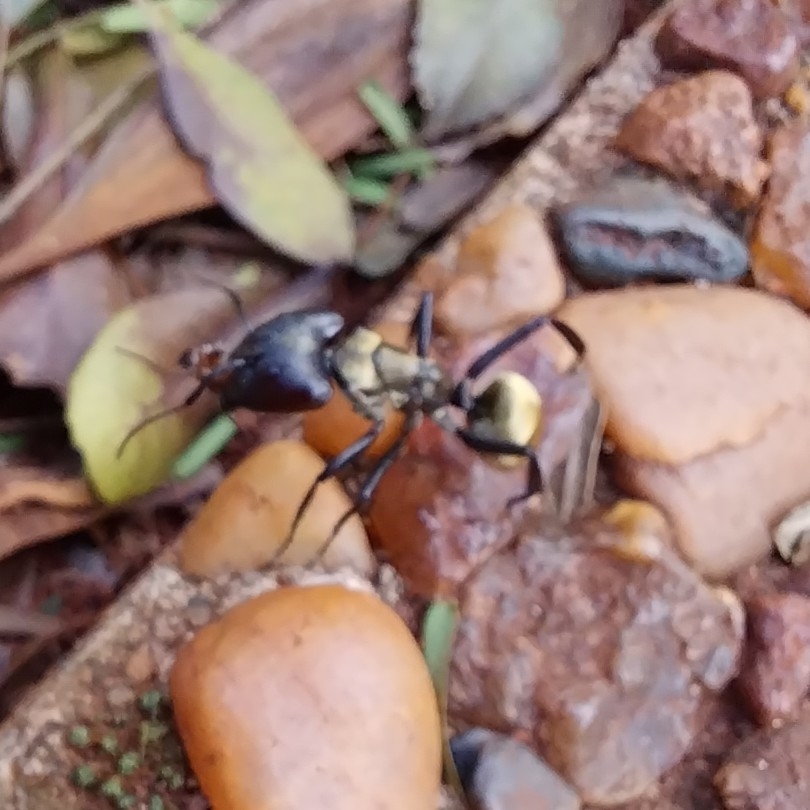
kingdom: Animalia
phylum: Arthropoda
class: Insecta
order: Hymenoptera
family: Formicidae
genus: Camponotus
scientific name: Camponotus sericeiventris
